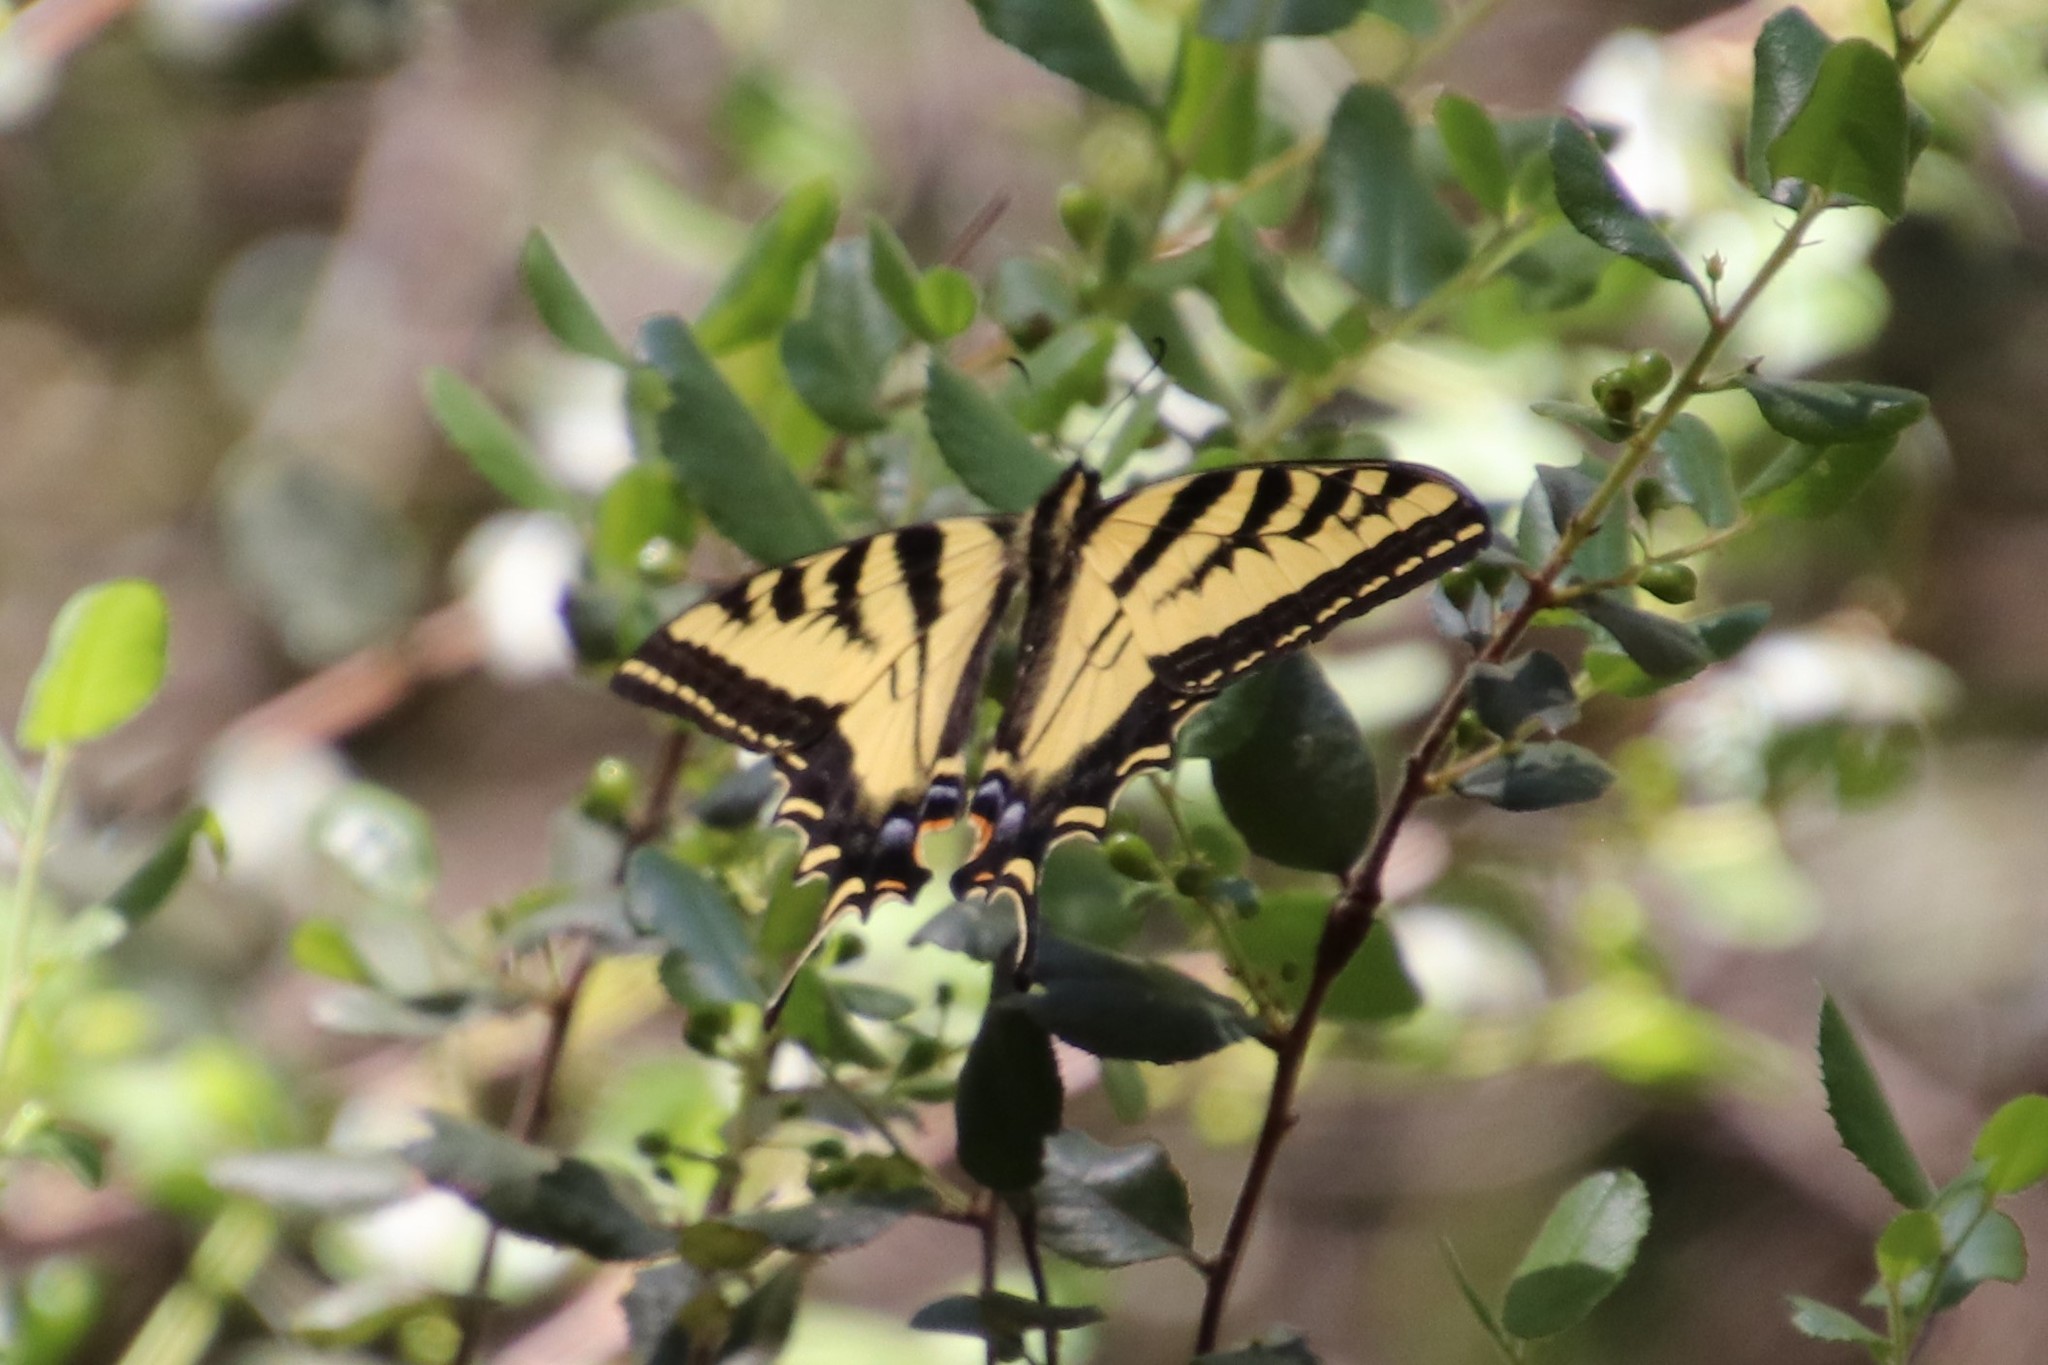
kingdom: Animalia
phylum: Arthropoda
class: Insecta
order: Lepidoptera
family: Papilionidae
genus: Papilio
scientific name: Papilio rutulus
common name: Western tiger swallowtail
